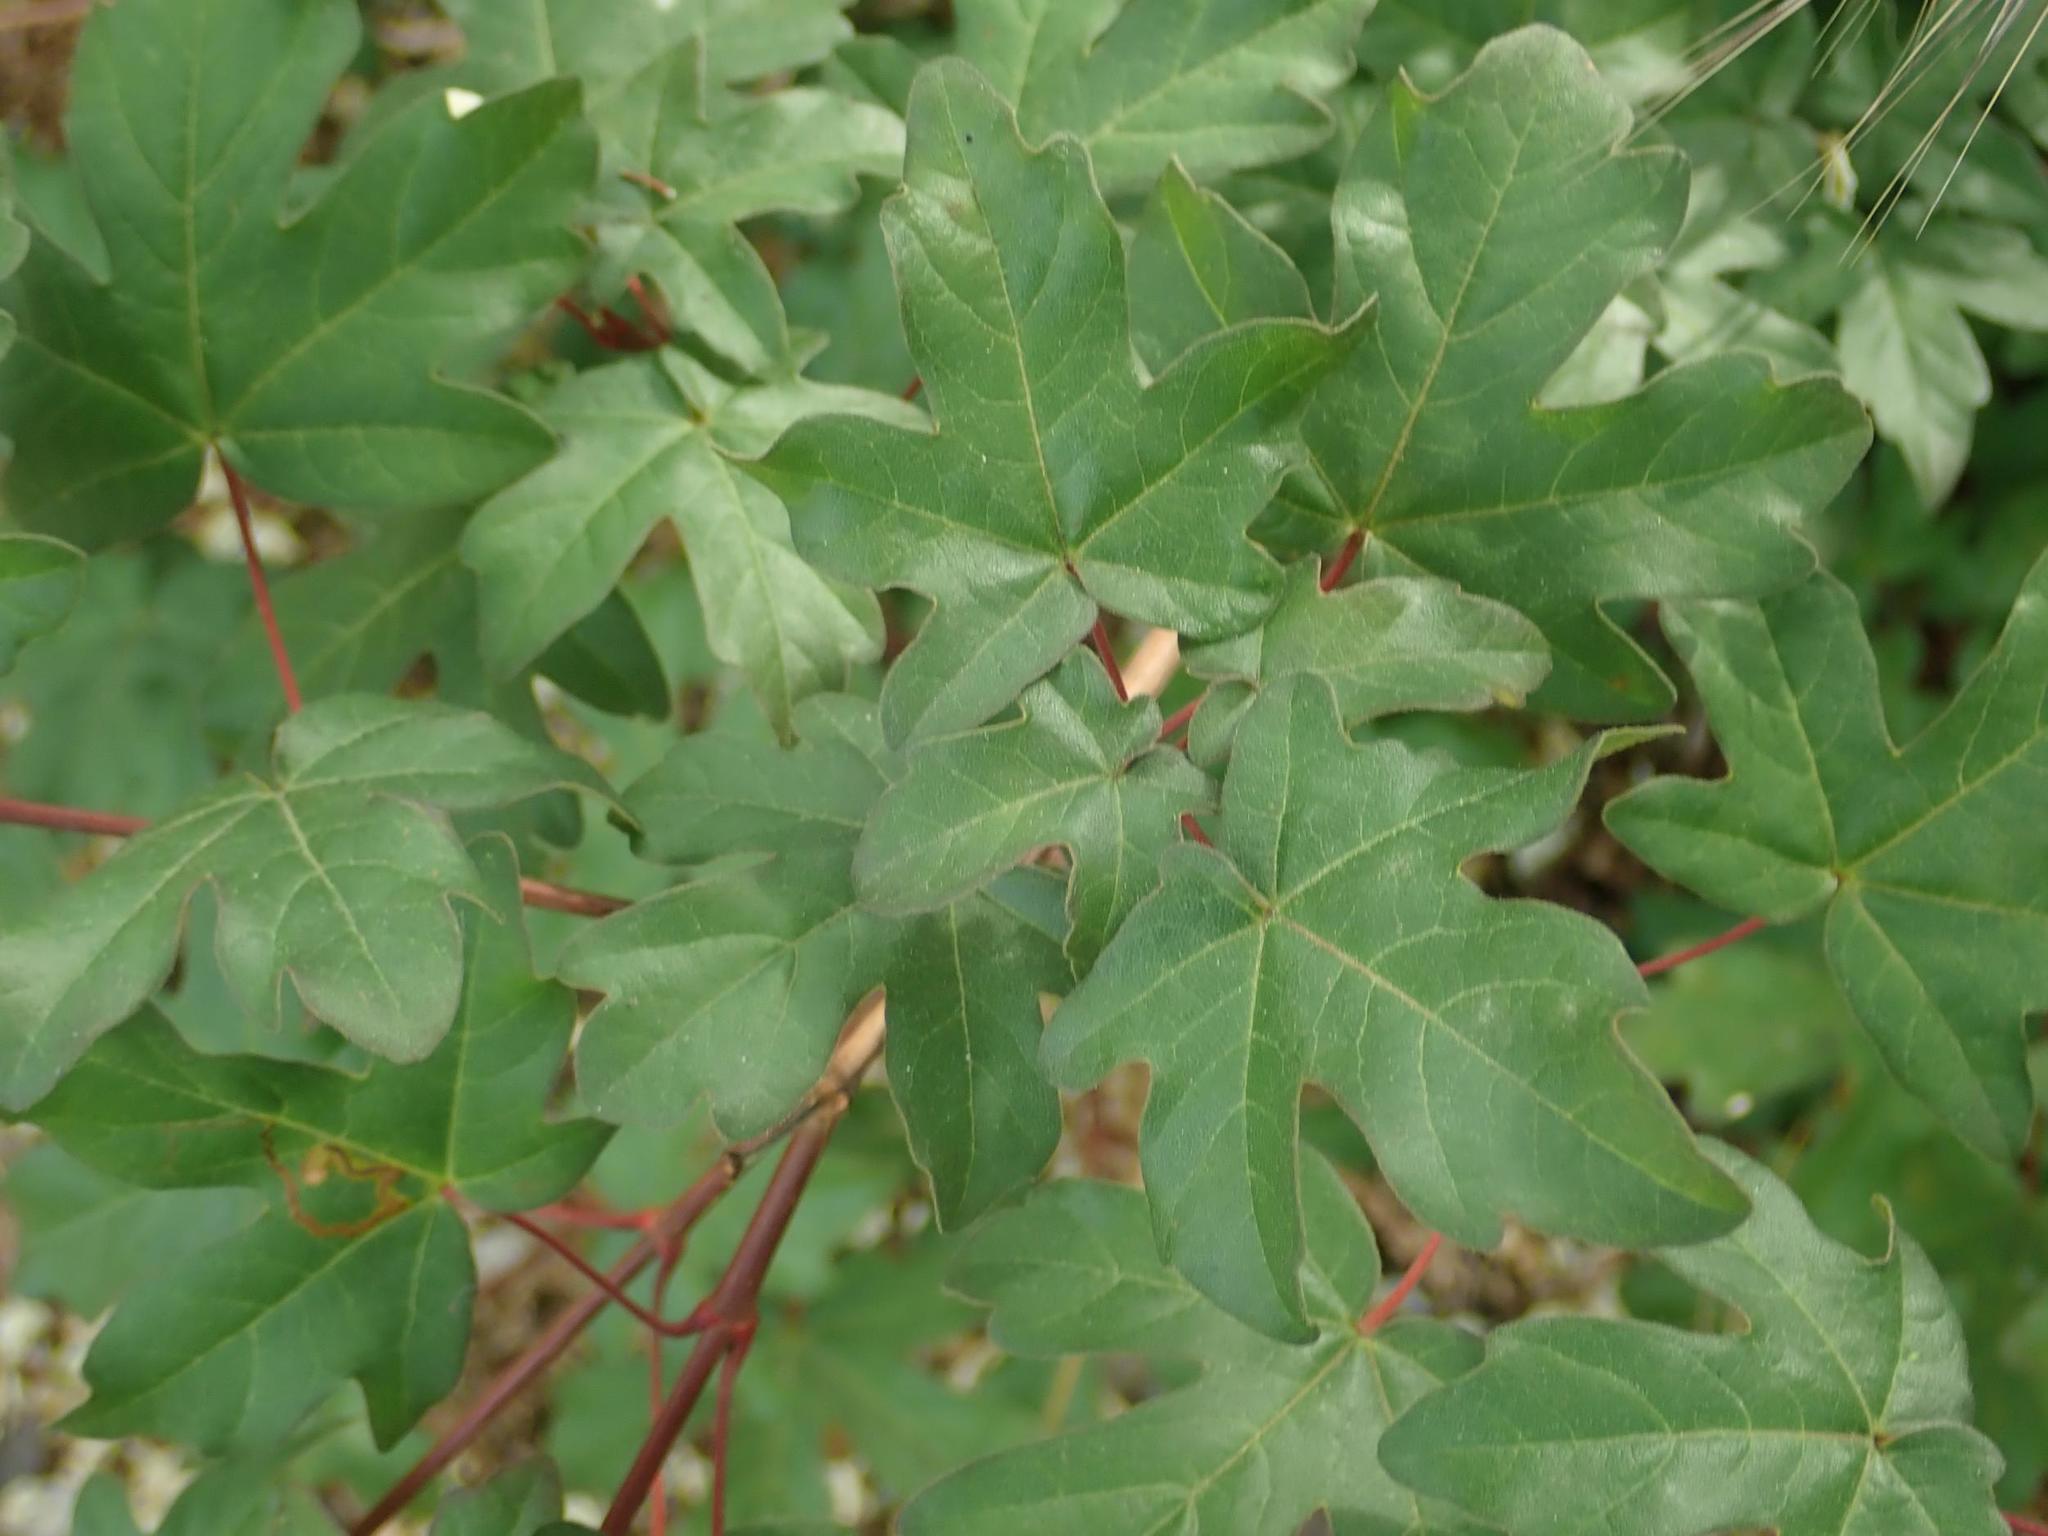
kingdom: Plantae
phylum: Tracheophyta
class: Magnoliopsida
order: Sapindales
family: Sapindaceae
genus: Acer
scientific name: Acer campestre
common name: Field maple
